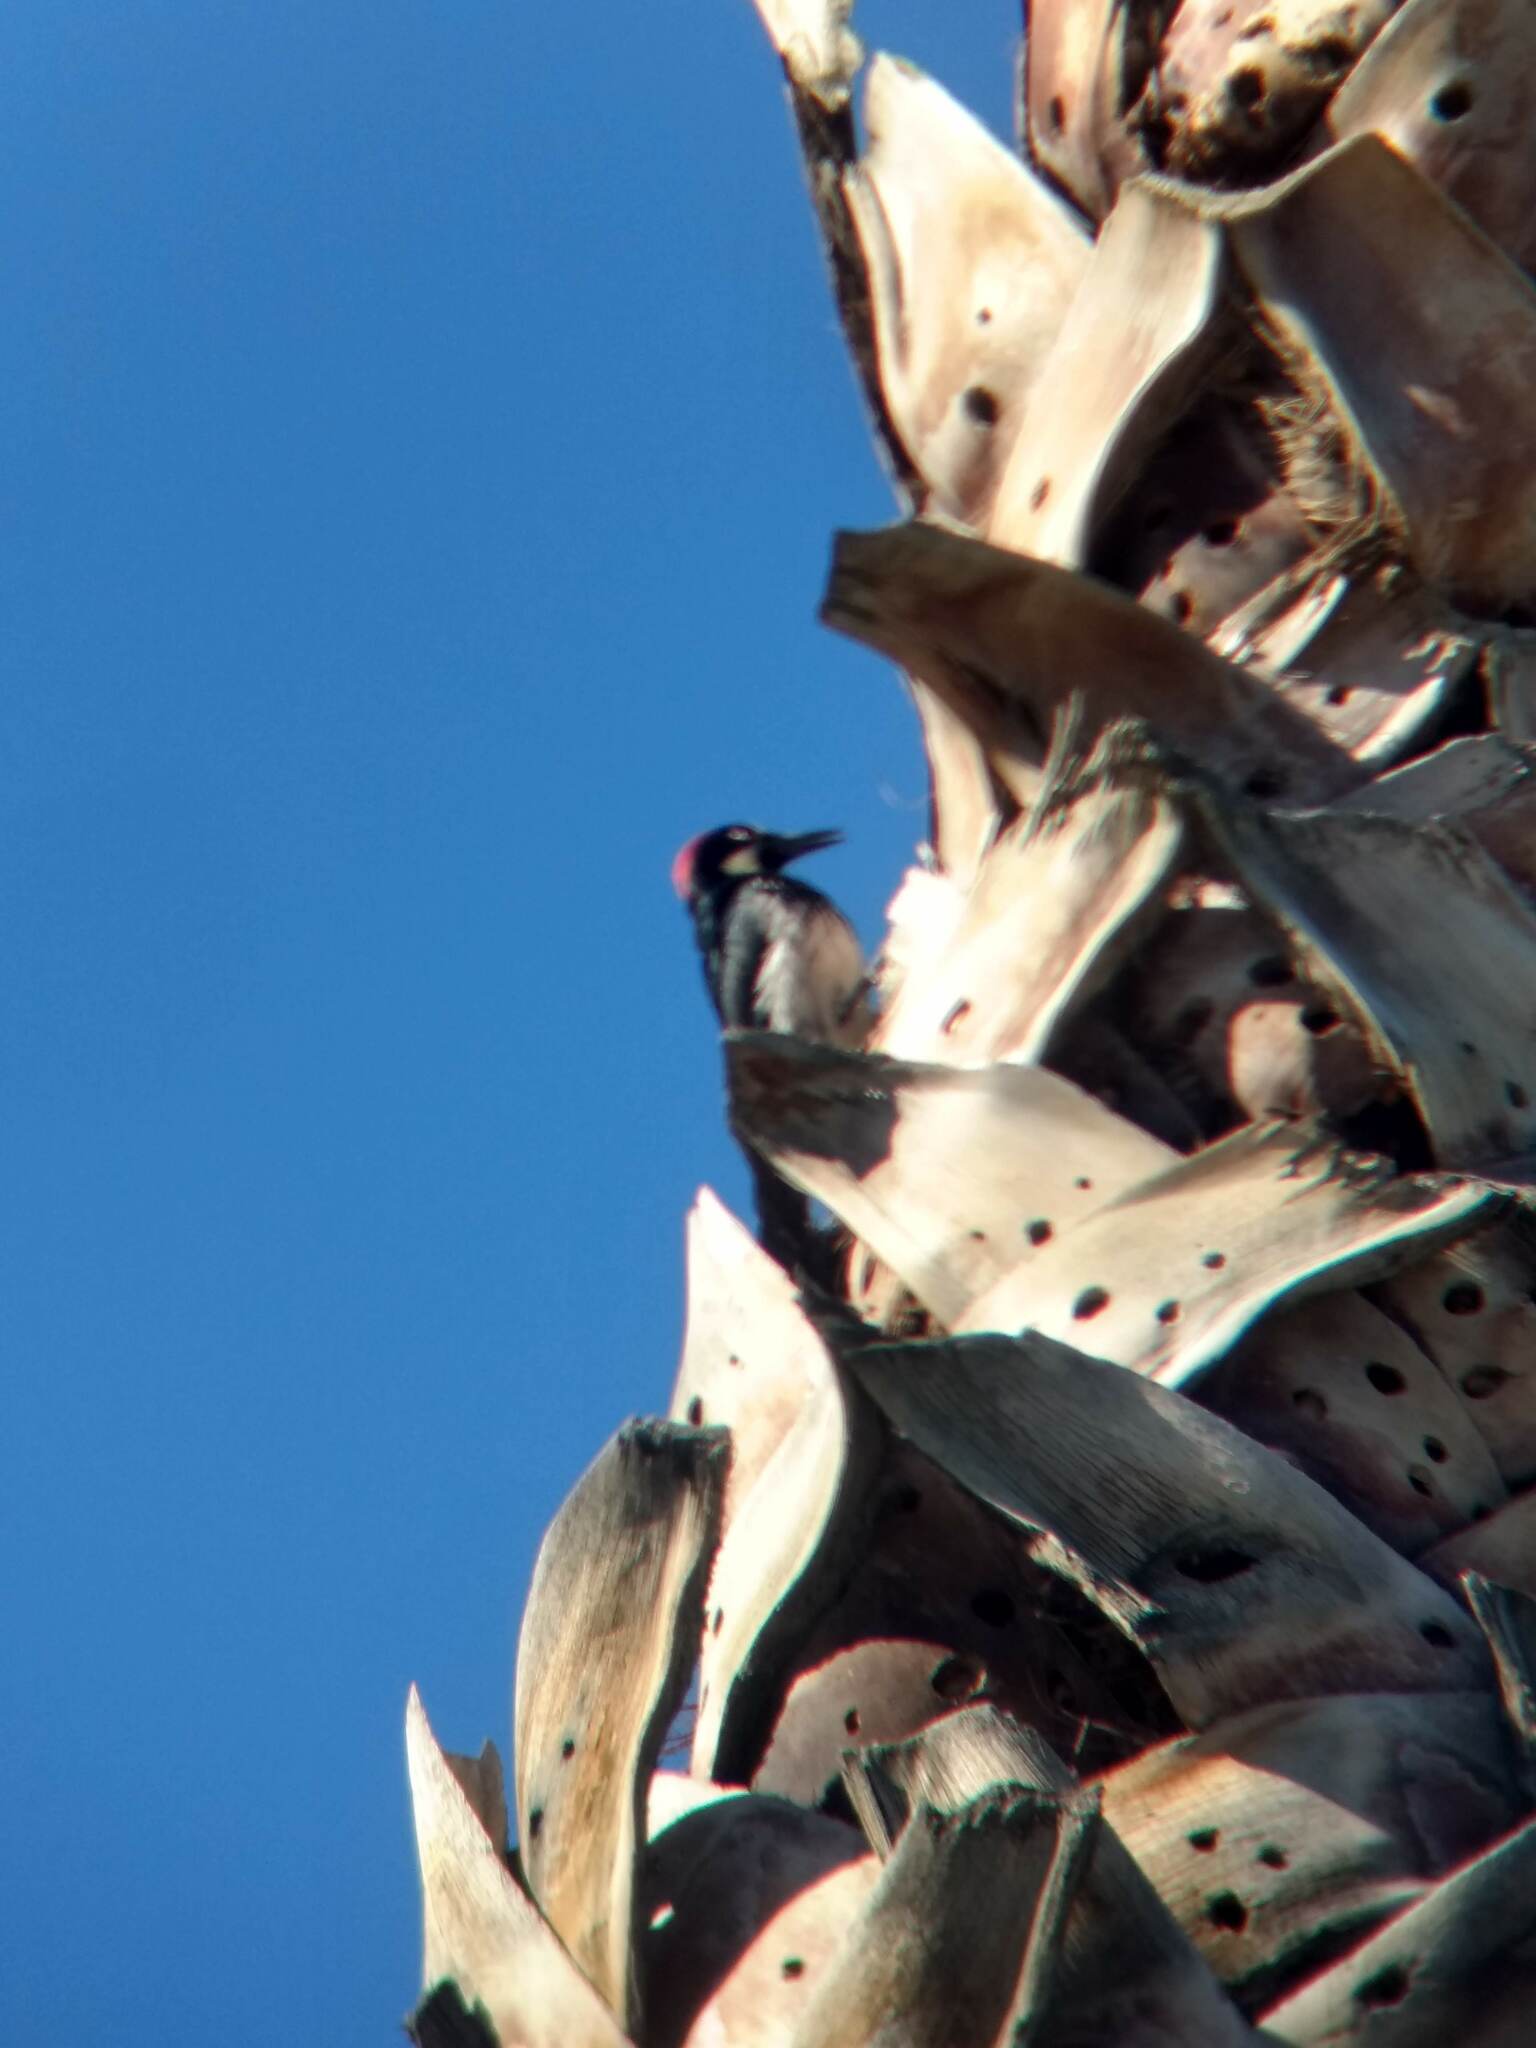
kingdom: Animalia
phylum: Chordata
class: Aves
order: Piciformes
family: Picidae
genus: Melanerpes
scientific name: Melanerpes formicivorus
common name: Acorn woodpecker
